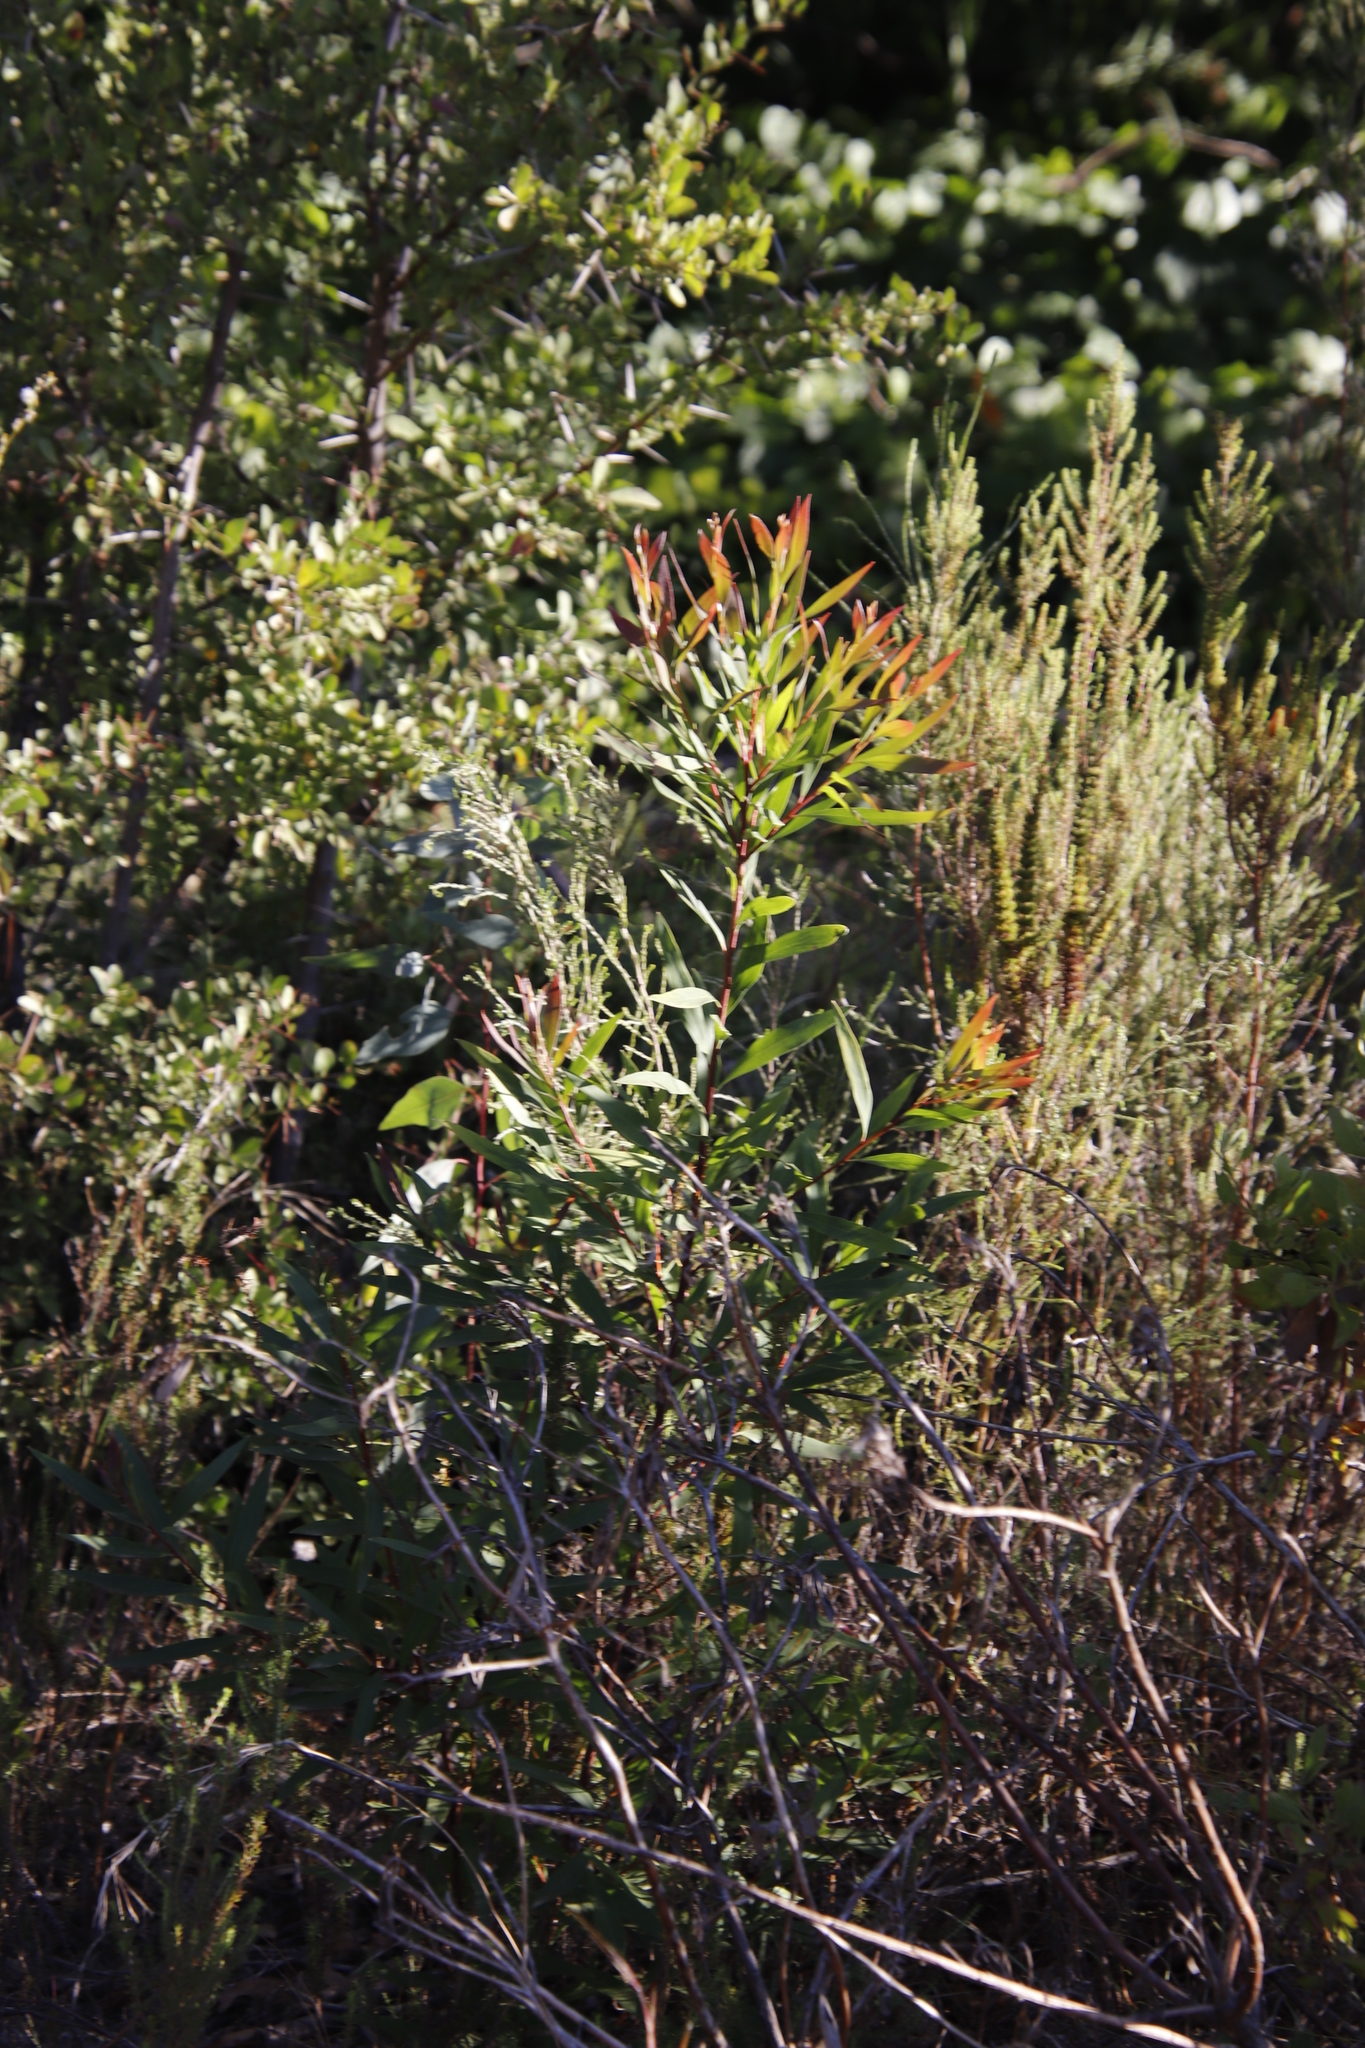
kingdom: Plantae
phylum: Tracheophyta
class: Magnoliopsida
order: Proteales
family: Proteaceae
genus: Hakea
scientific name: Hakea salicifolia
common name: Willow hakea
